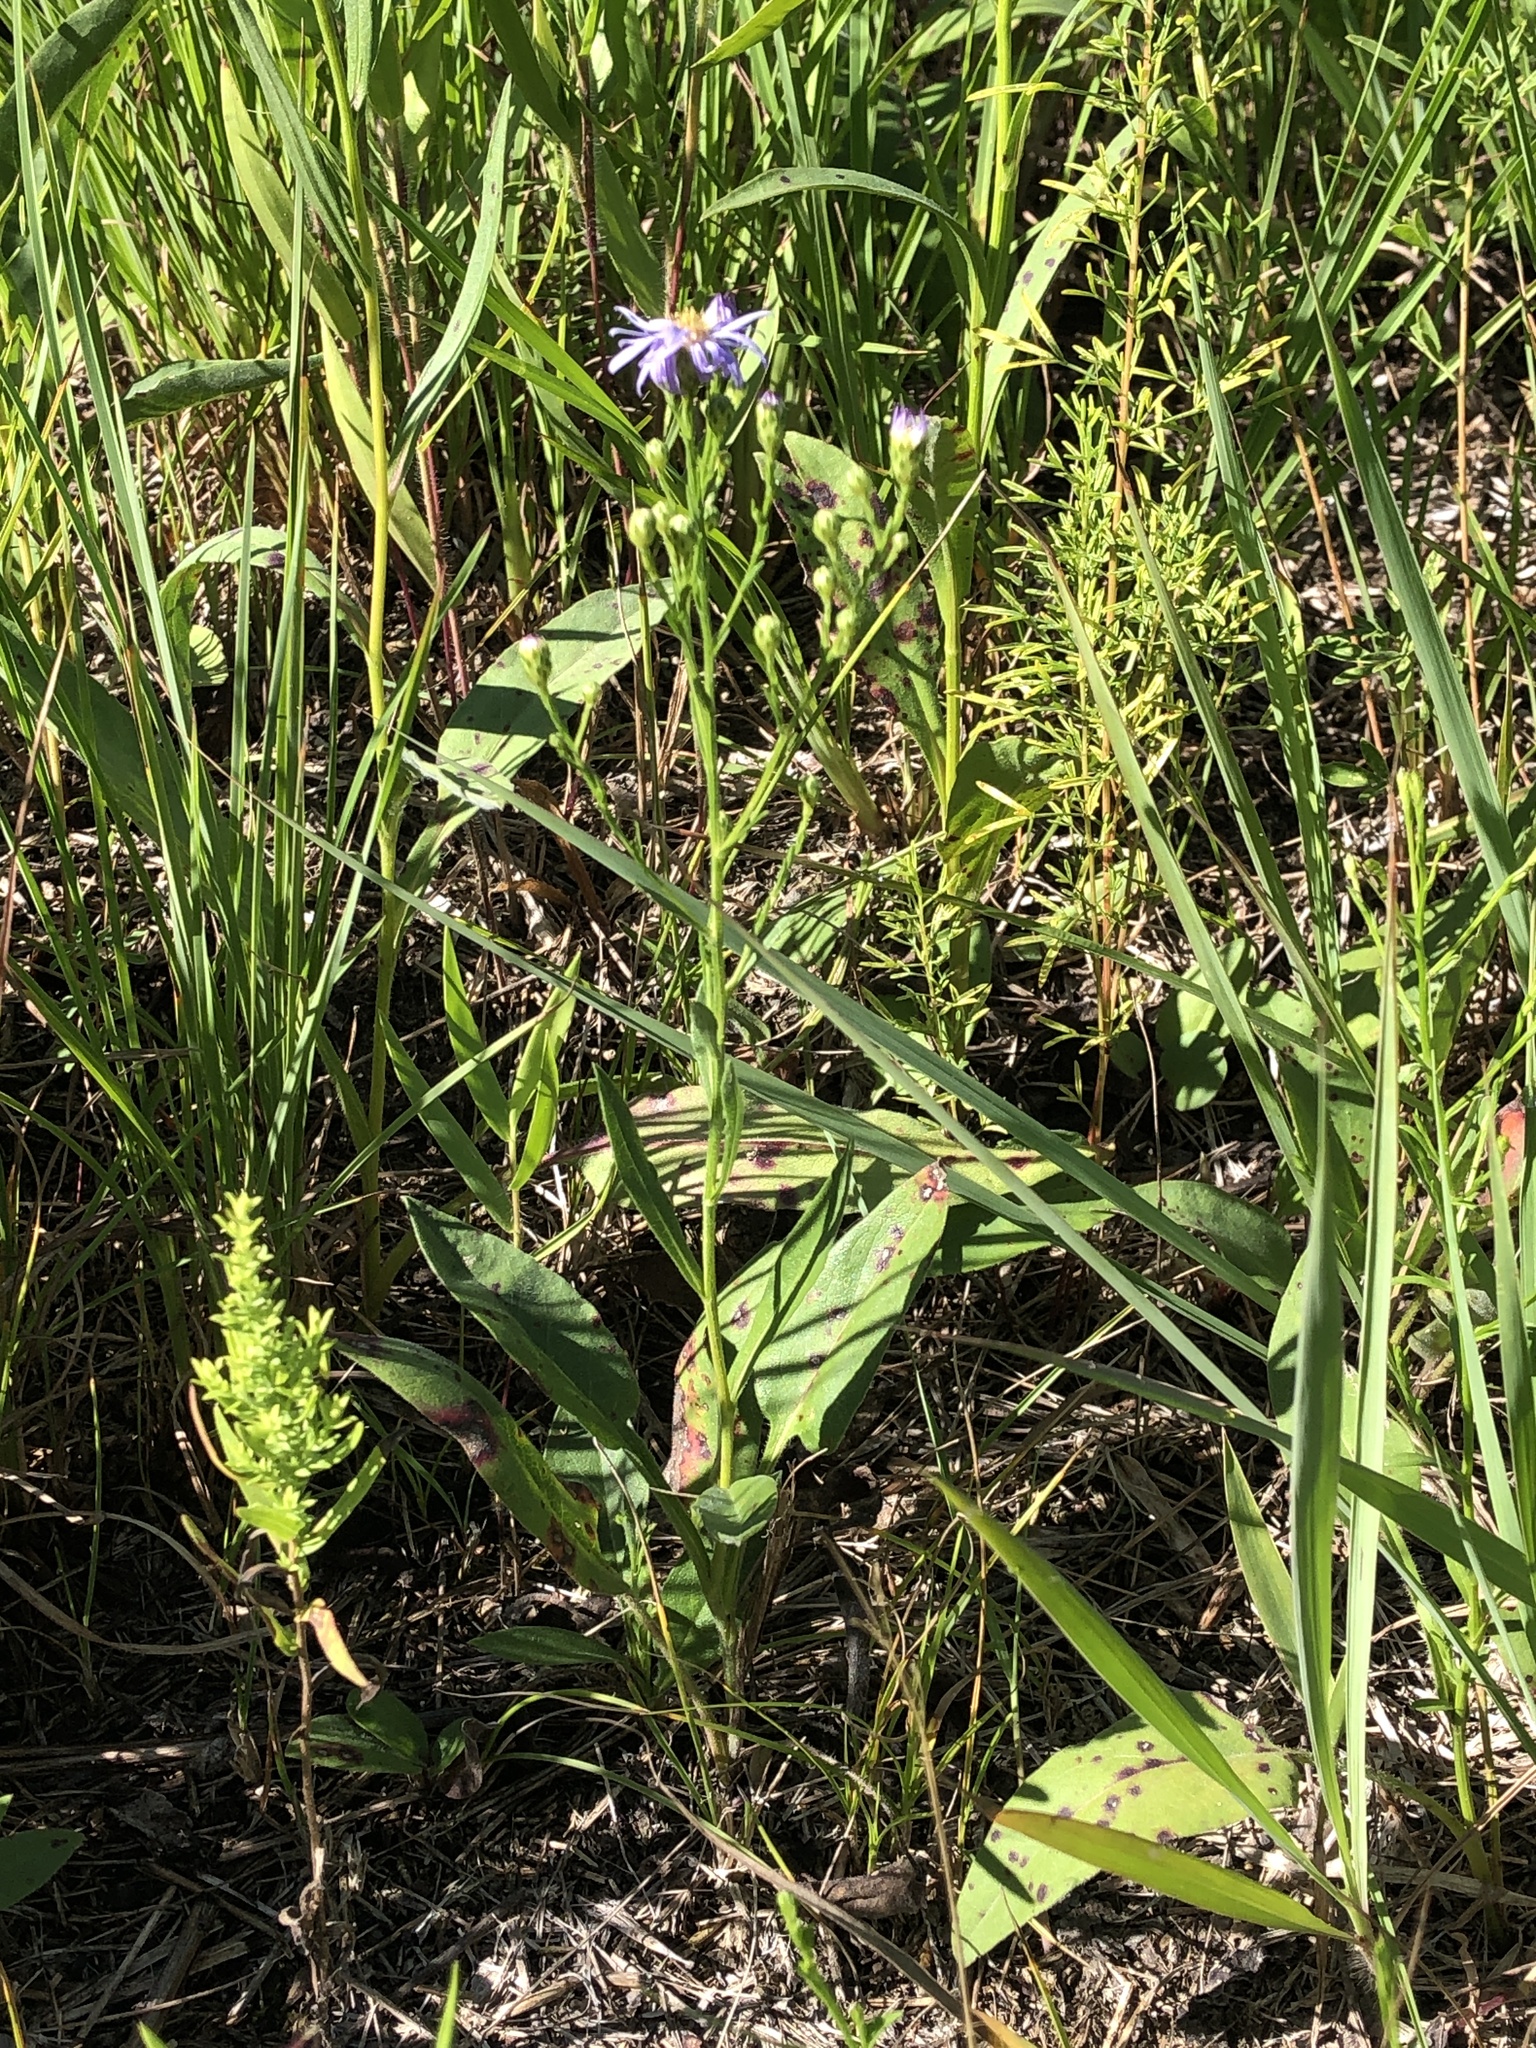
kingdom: Plantae
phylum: Tracheophyta
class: Magnoliopsida
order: Asterales
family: Asteraceae
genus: Symphyotrichum
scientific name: Symphyotrichum oolentangiense
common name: Azure aster
